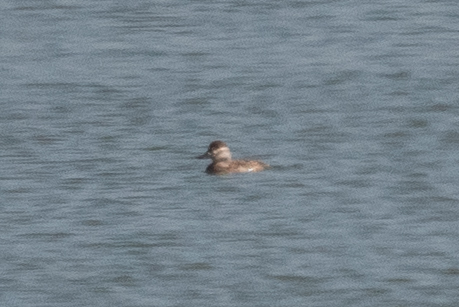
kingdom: Animalia
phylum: Chordata
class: Aves
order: Anseriformes
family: Anatidae
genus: Oxyura
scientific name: Oxyura jamaicensis
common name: Ruddy duck
